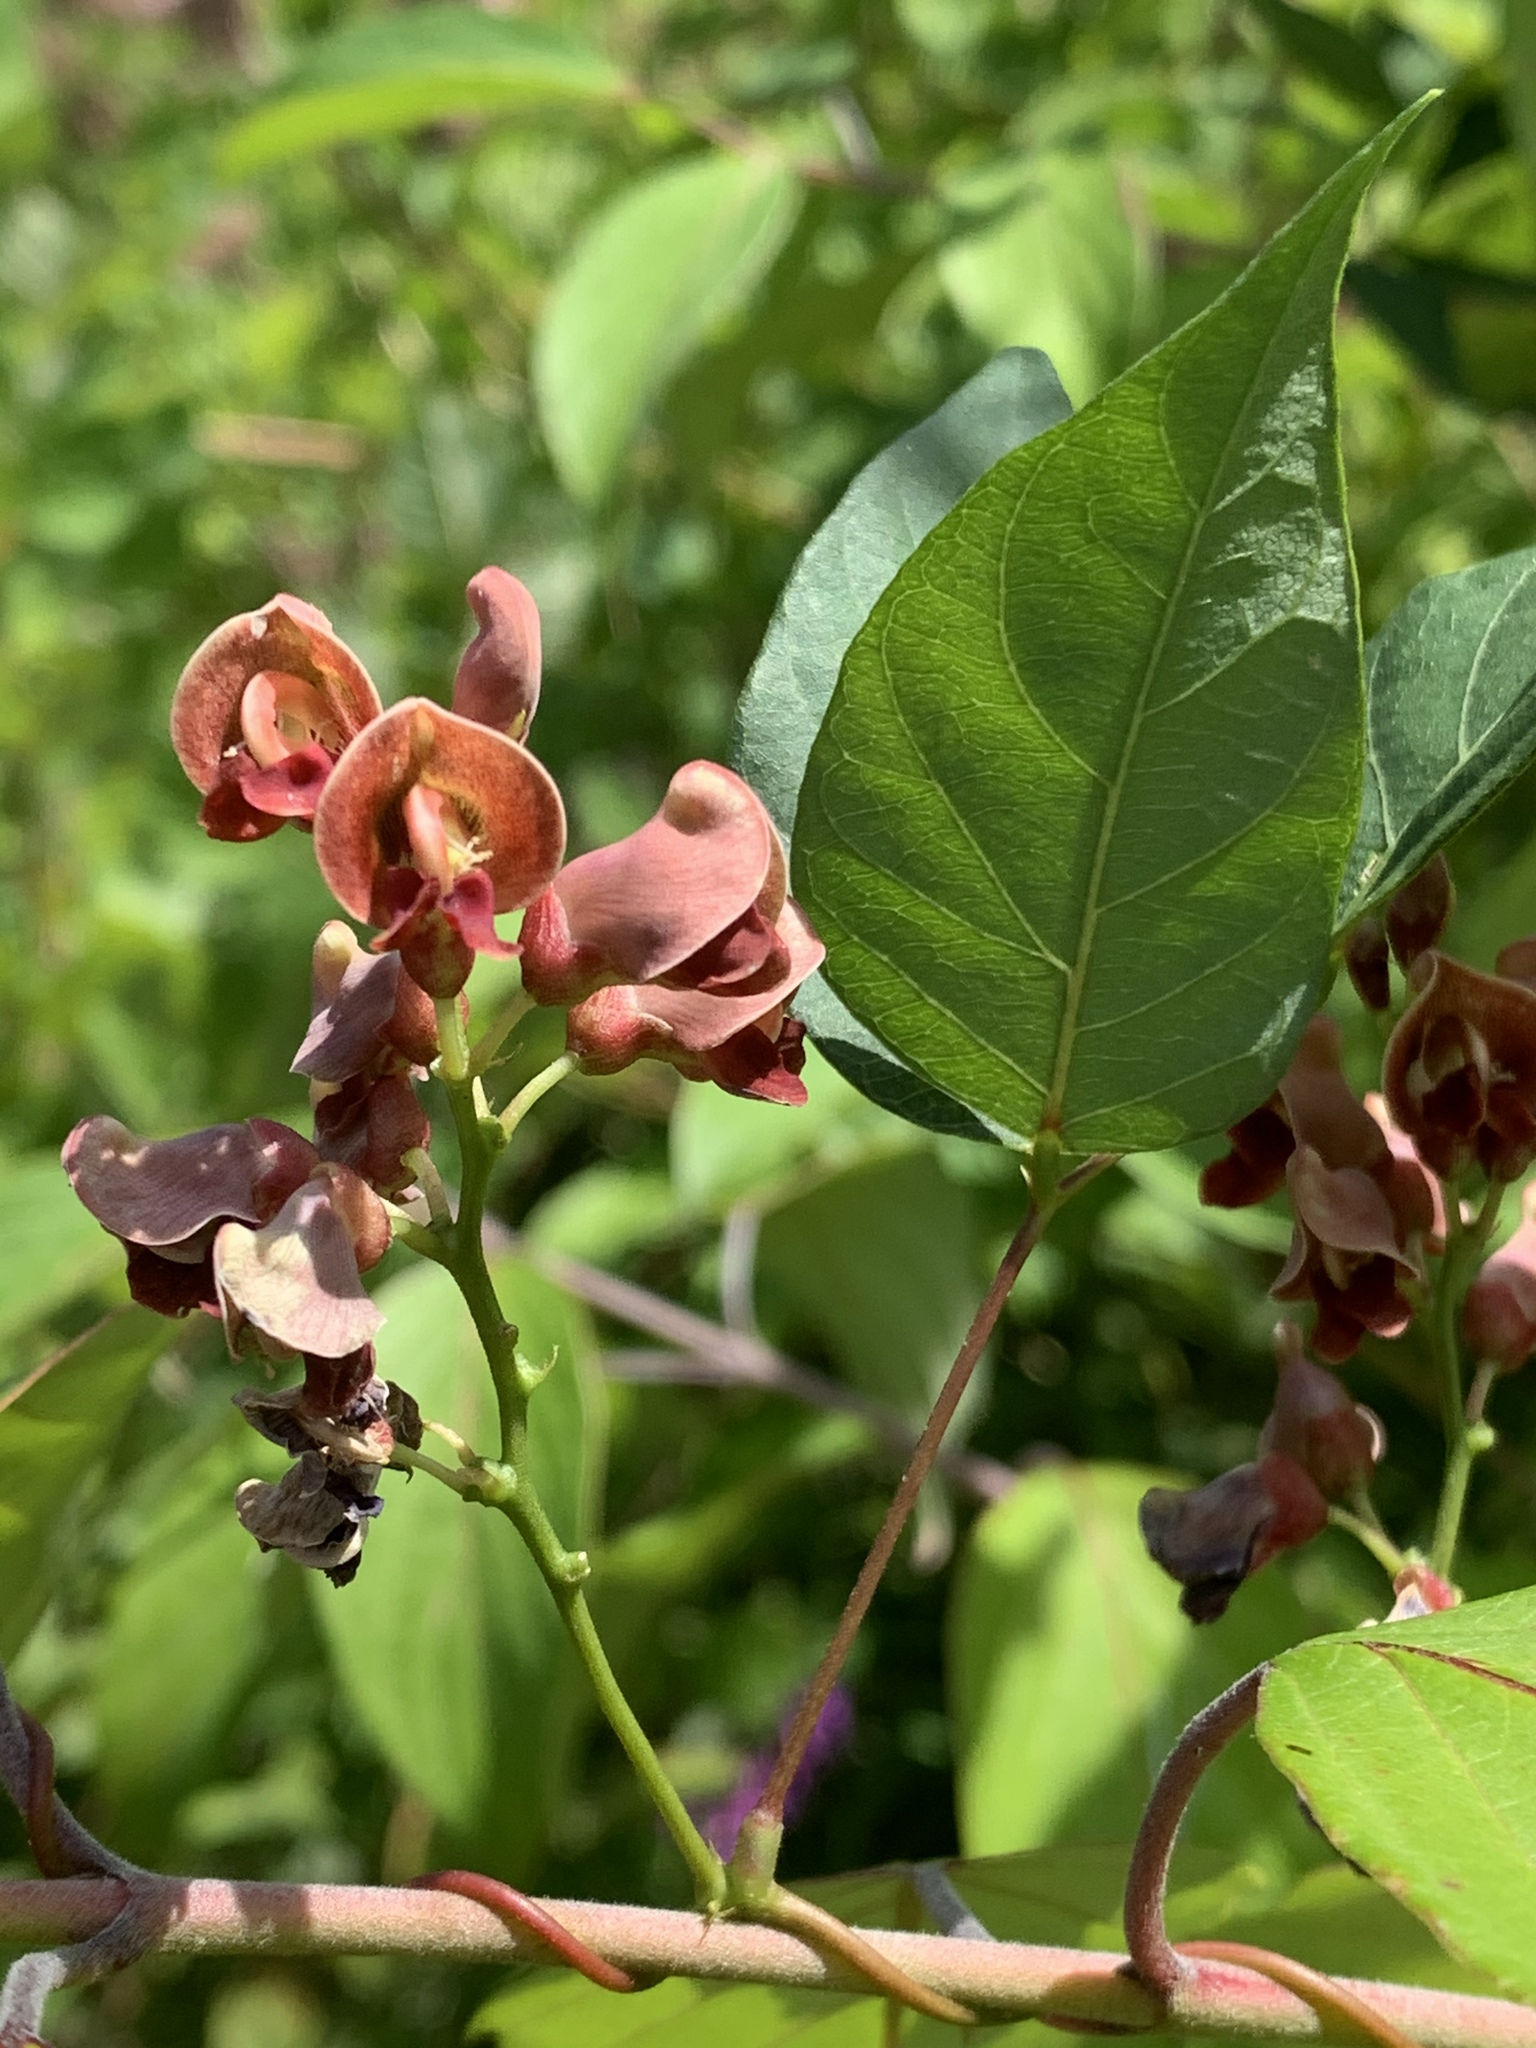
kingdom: Plantae
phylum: Tracheophyta
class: Magnoliopsida
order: Fabales
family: Fabaceae
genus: Apios
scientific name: Apios americana
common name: American potato-bean
